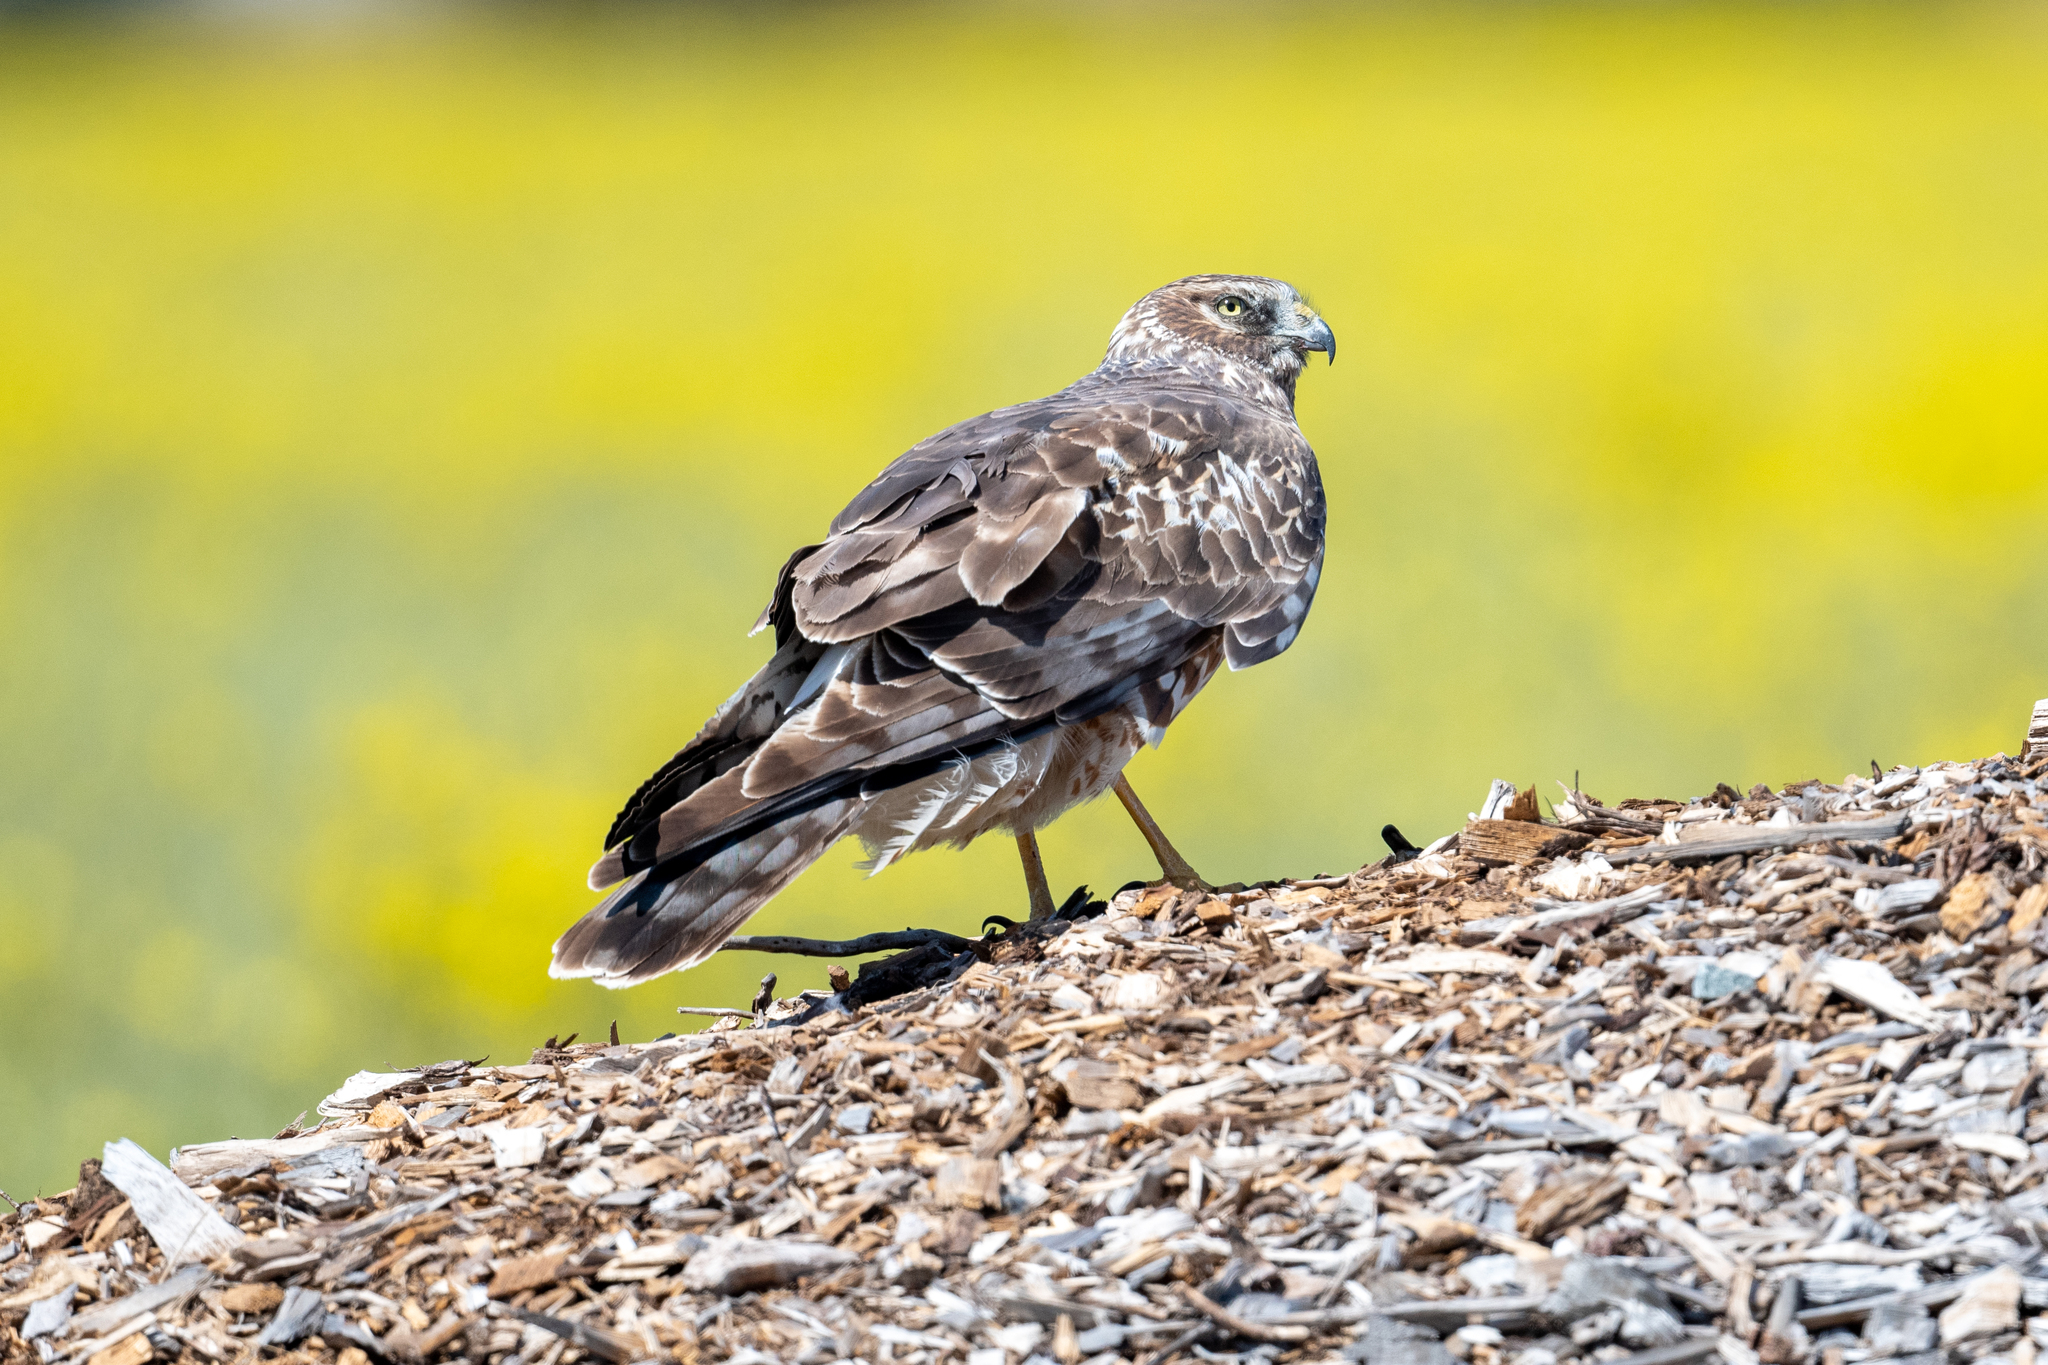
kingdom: Animalia
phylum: Chordata
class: Aves
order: Accipitriformes
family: Accipitridae
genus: Circus
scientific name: Circus cyaneus
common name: Hen harrier
